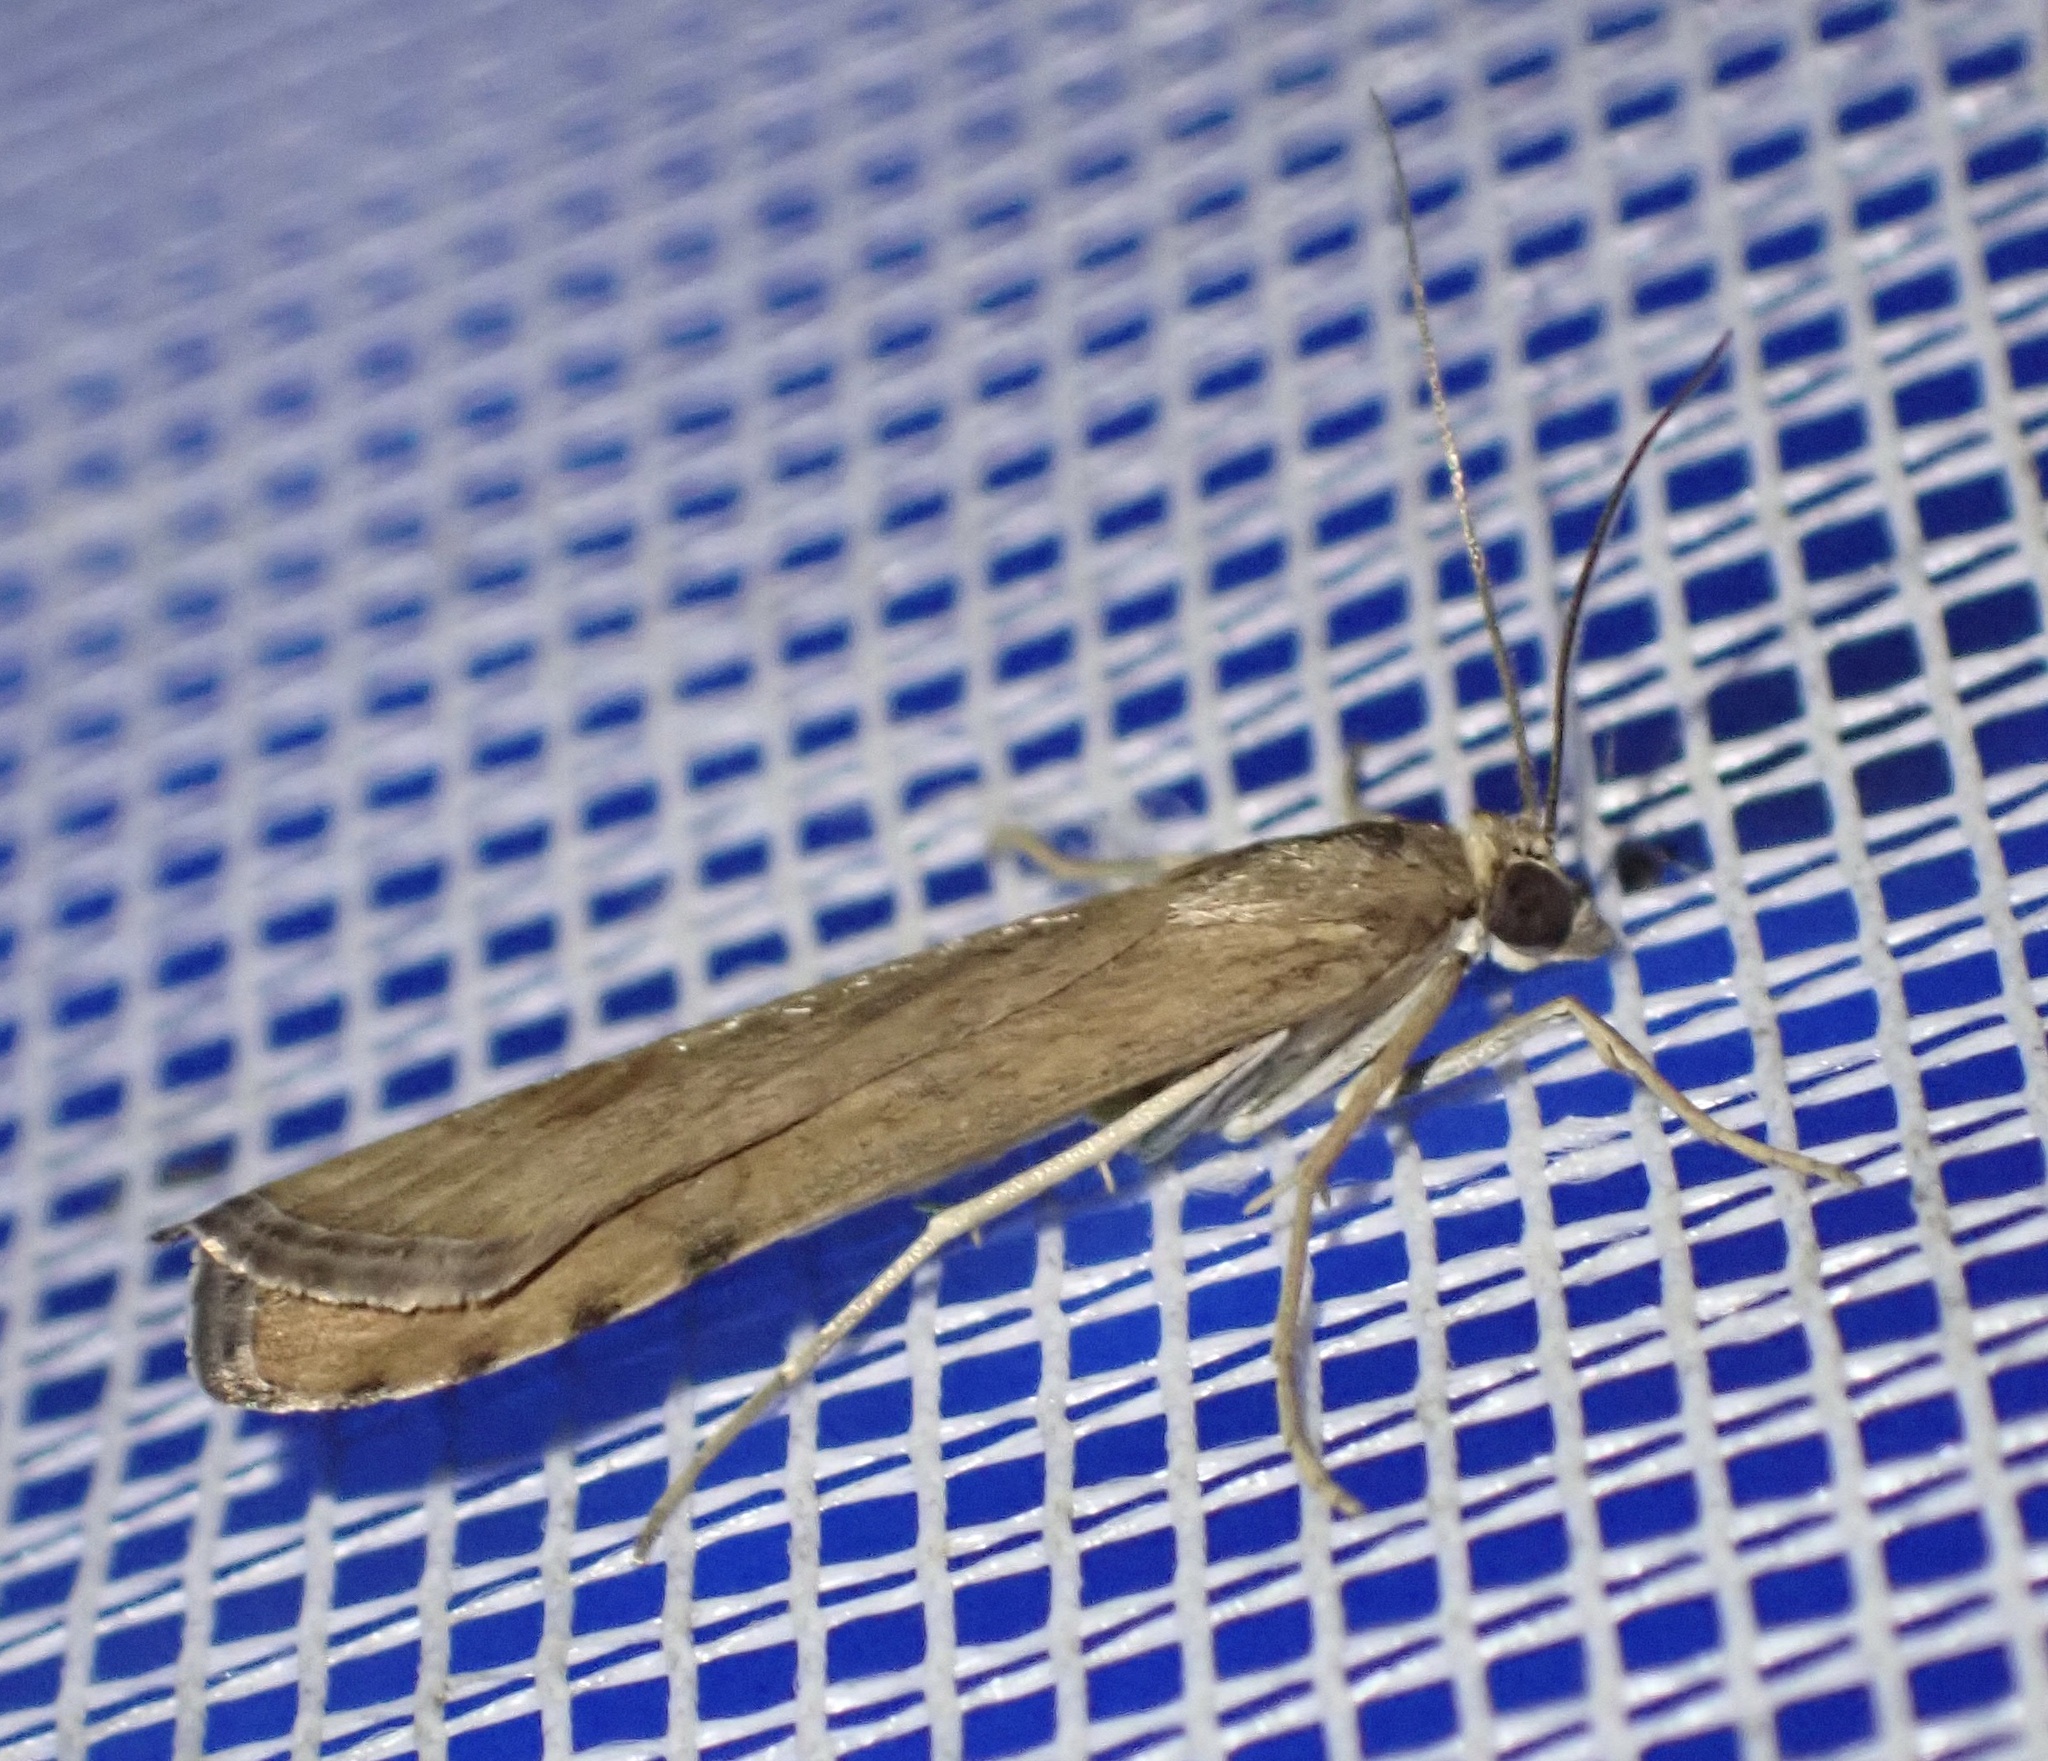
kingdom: Animalia
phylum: Arthropoda
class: Insecta
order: Lepidoptera
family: Crambidae
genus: Nomophila
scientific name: Nomophila noctuella
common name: Rush veneer
